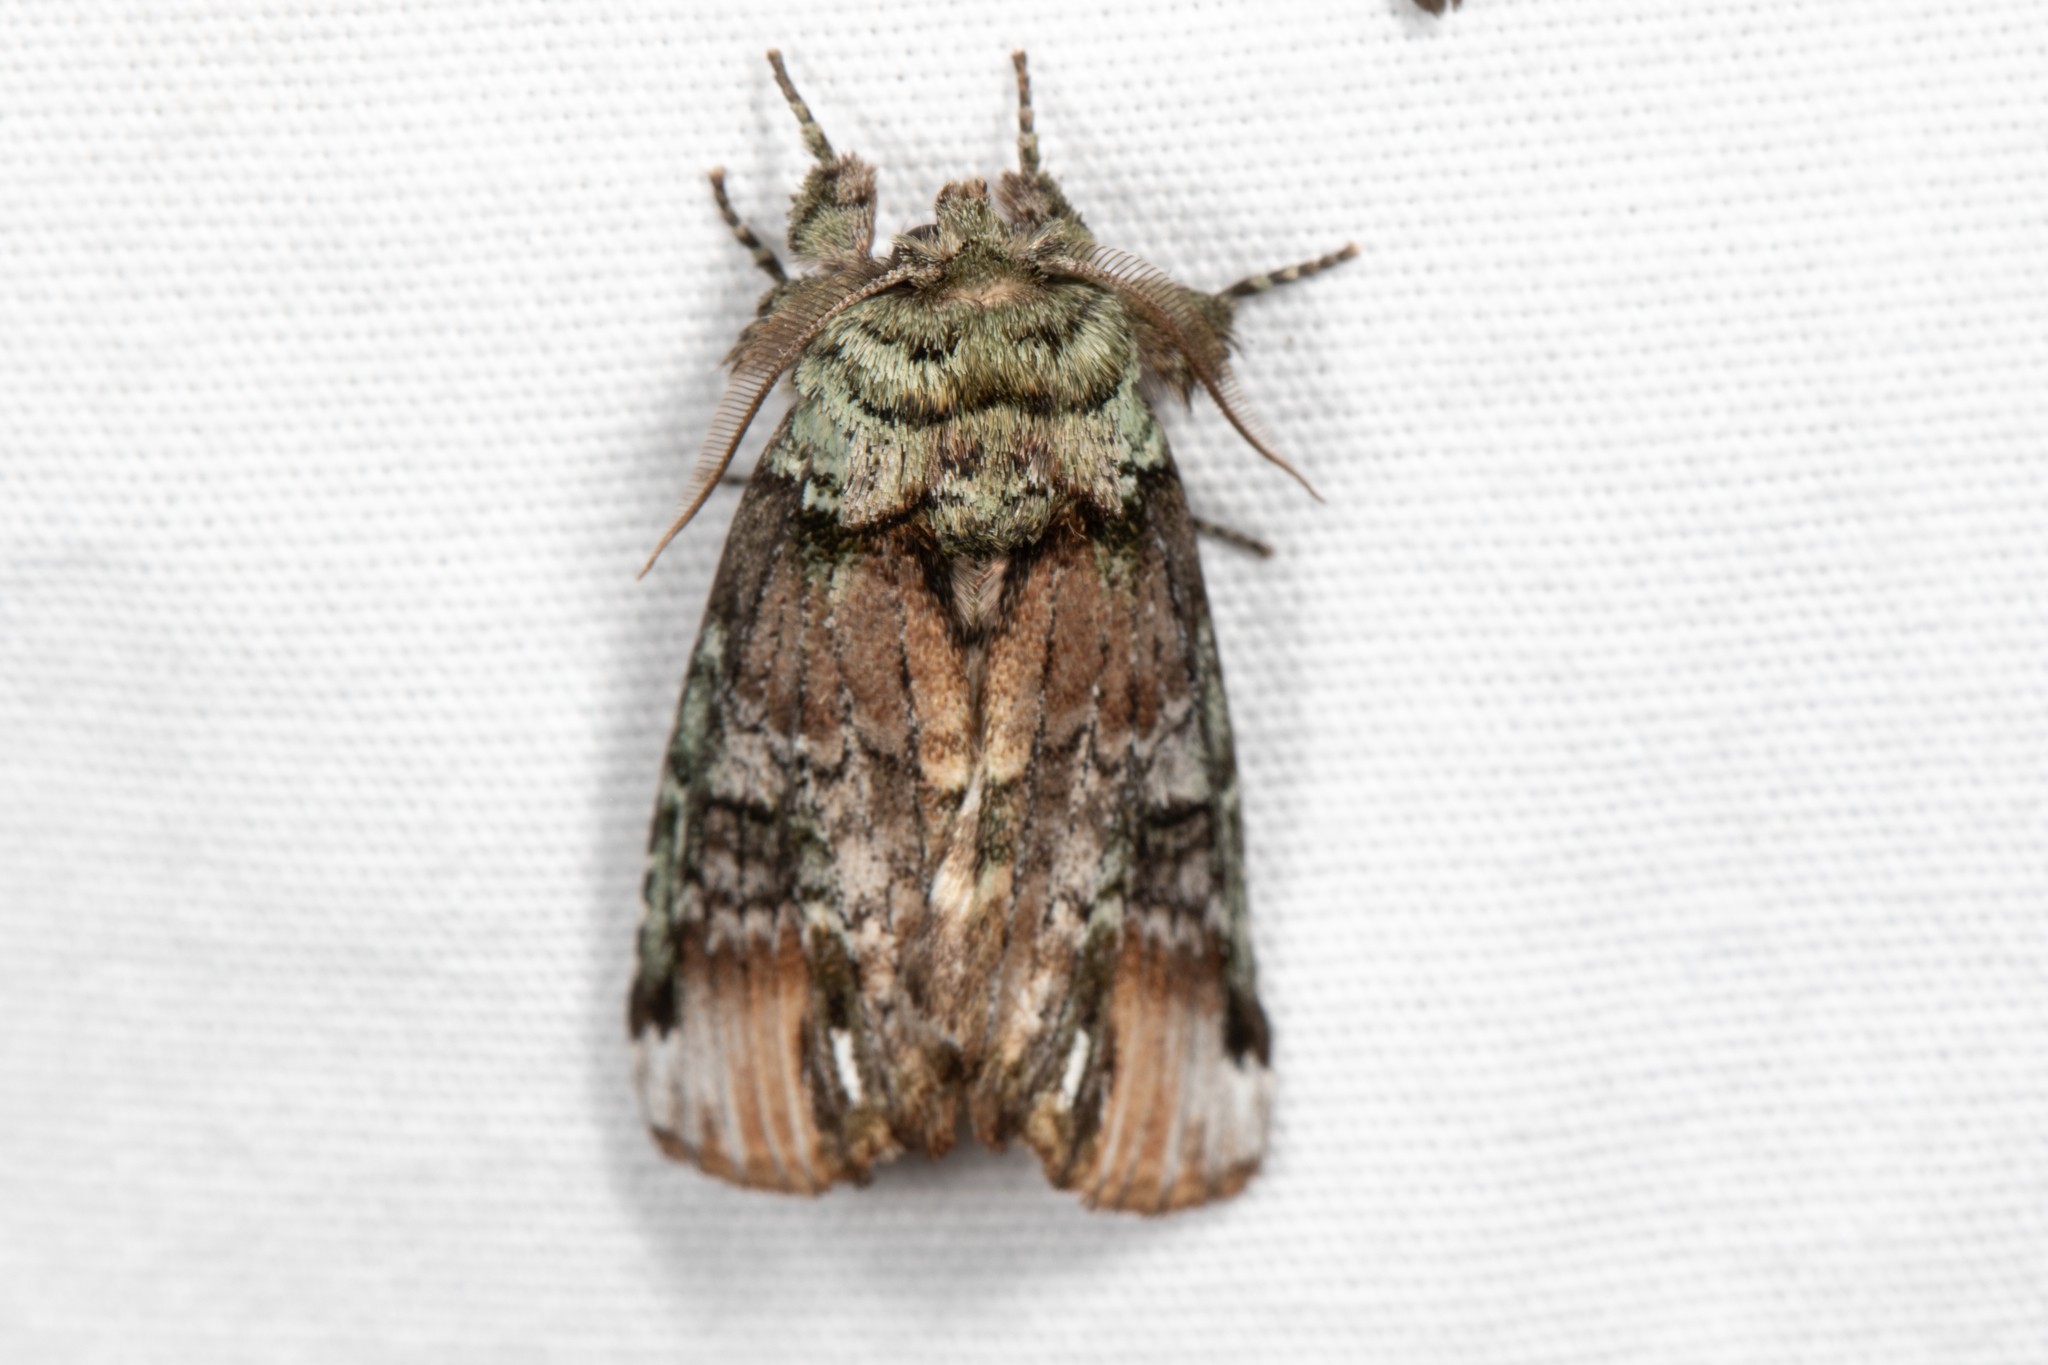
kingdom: Animalia
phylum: Arthropoda
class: Insecta
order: Lepidoptera
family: Notodontidae
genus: Schizura
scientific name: Schizura
